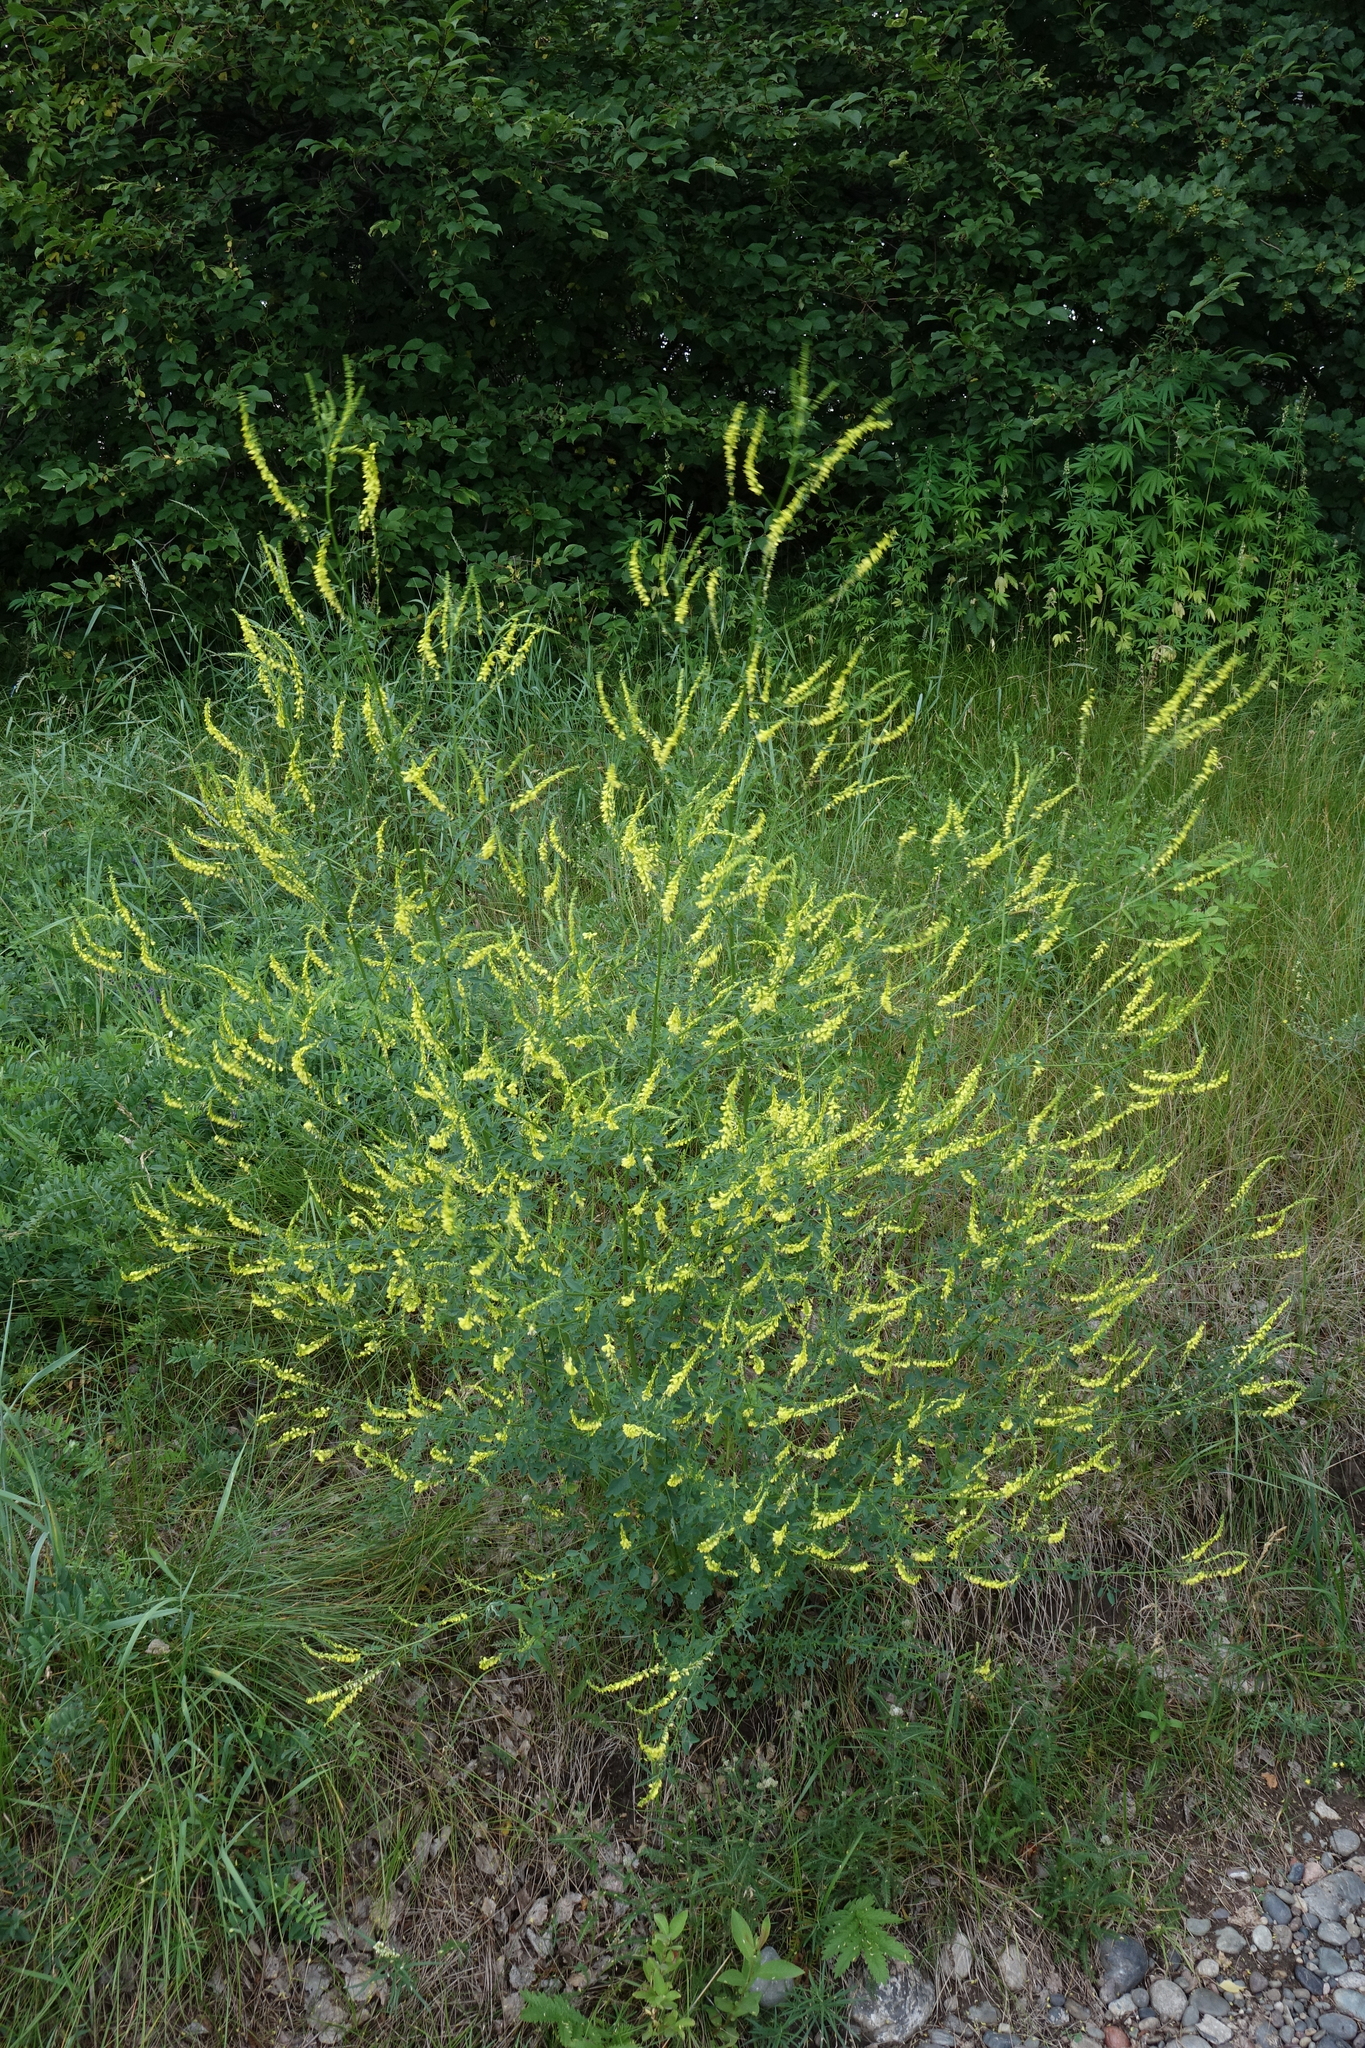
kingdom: Plantae
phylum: Tracheophyta
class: Magnoliopsida
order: Fabales
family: Fabaceae
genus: Melilotus
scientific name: Melilotus officinalis
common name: Sweetclover
